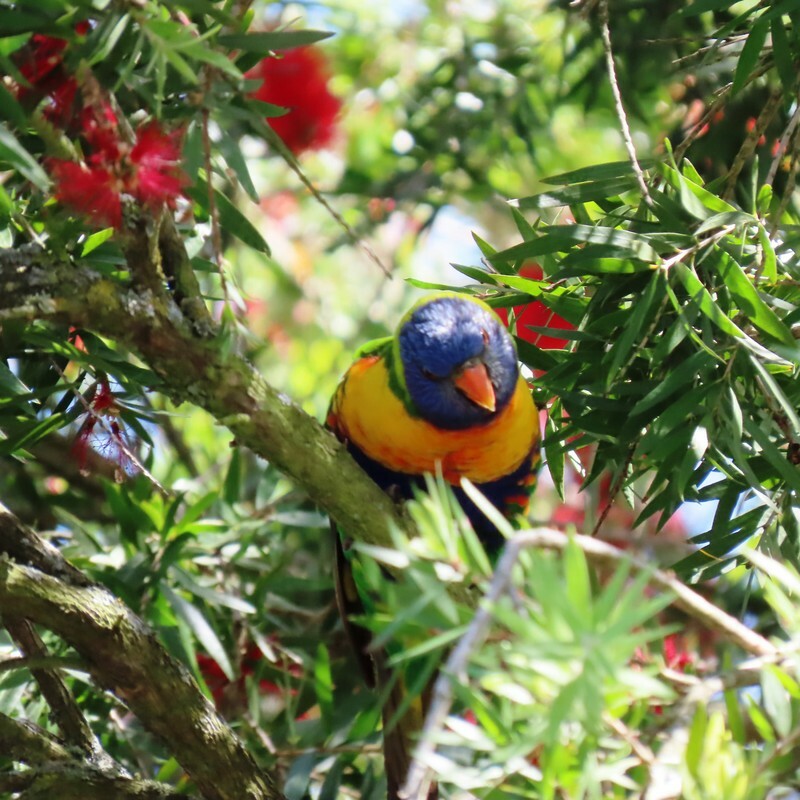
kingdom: Animalia
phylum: Chordata
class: Aves
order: Psittaciformes
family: Psittacidae
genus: Trichoglossus
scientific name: Trichoglossus haematodus
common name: Coconut lorikeet
